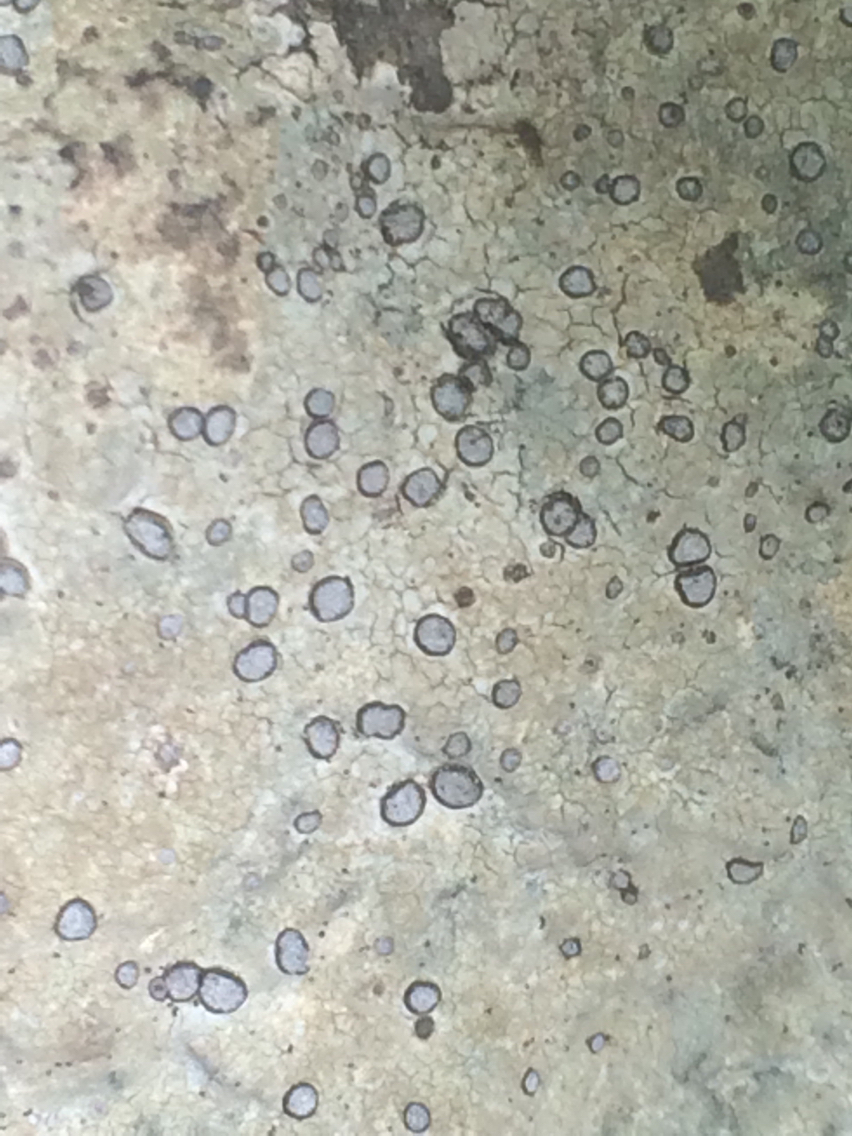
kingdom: Fungi
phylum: Ascomycota
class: Lecanoromycetes
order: Lecideales
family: Lecideaceae
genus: Porpidia
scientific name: Porpidia albocaerulescens
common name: Smokey-eyed boulder lichen
